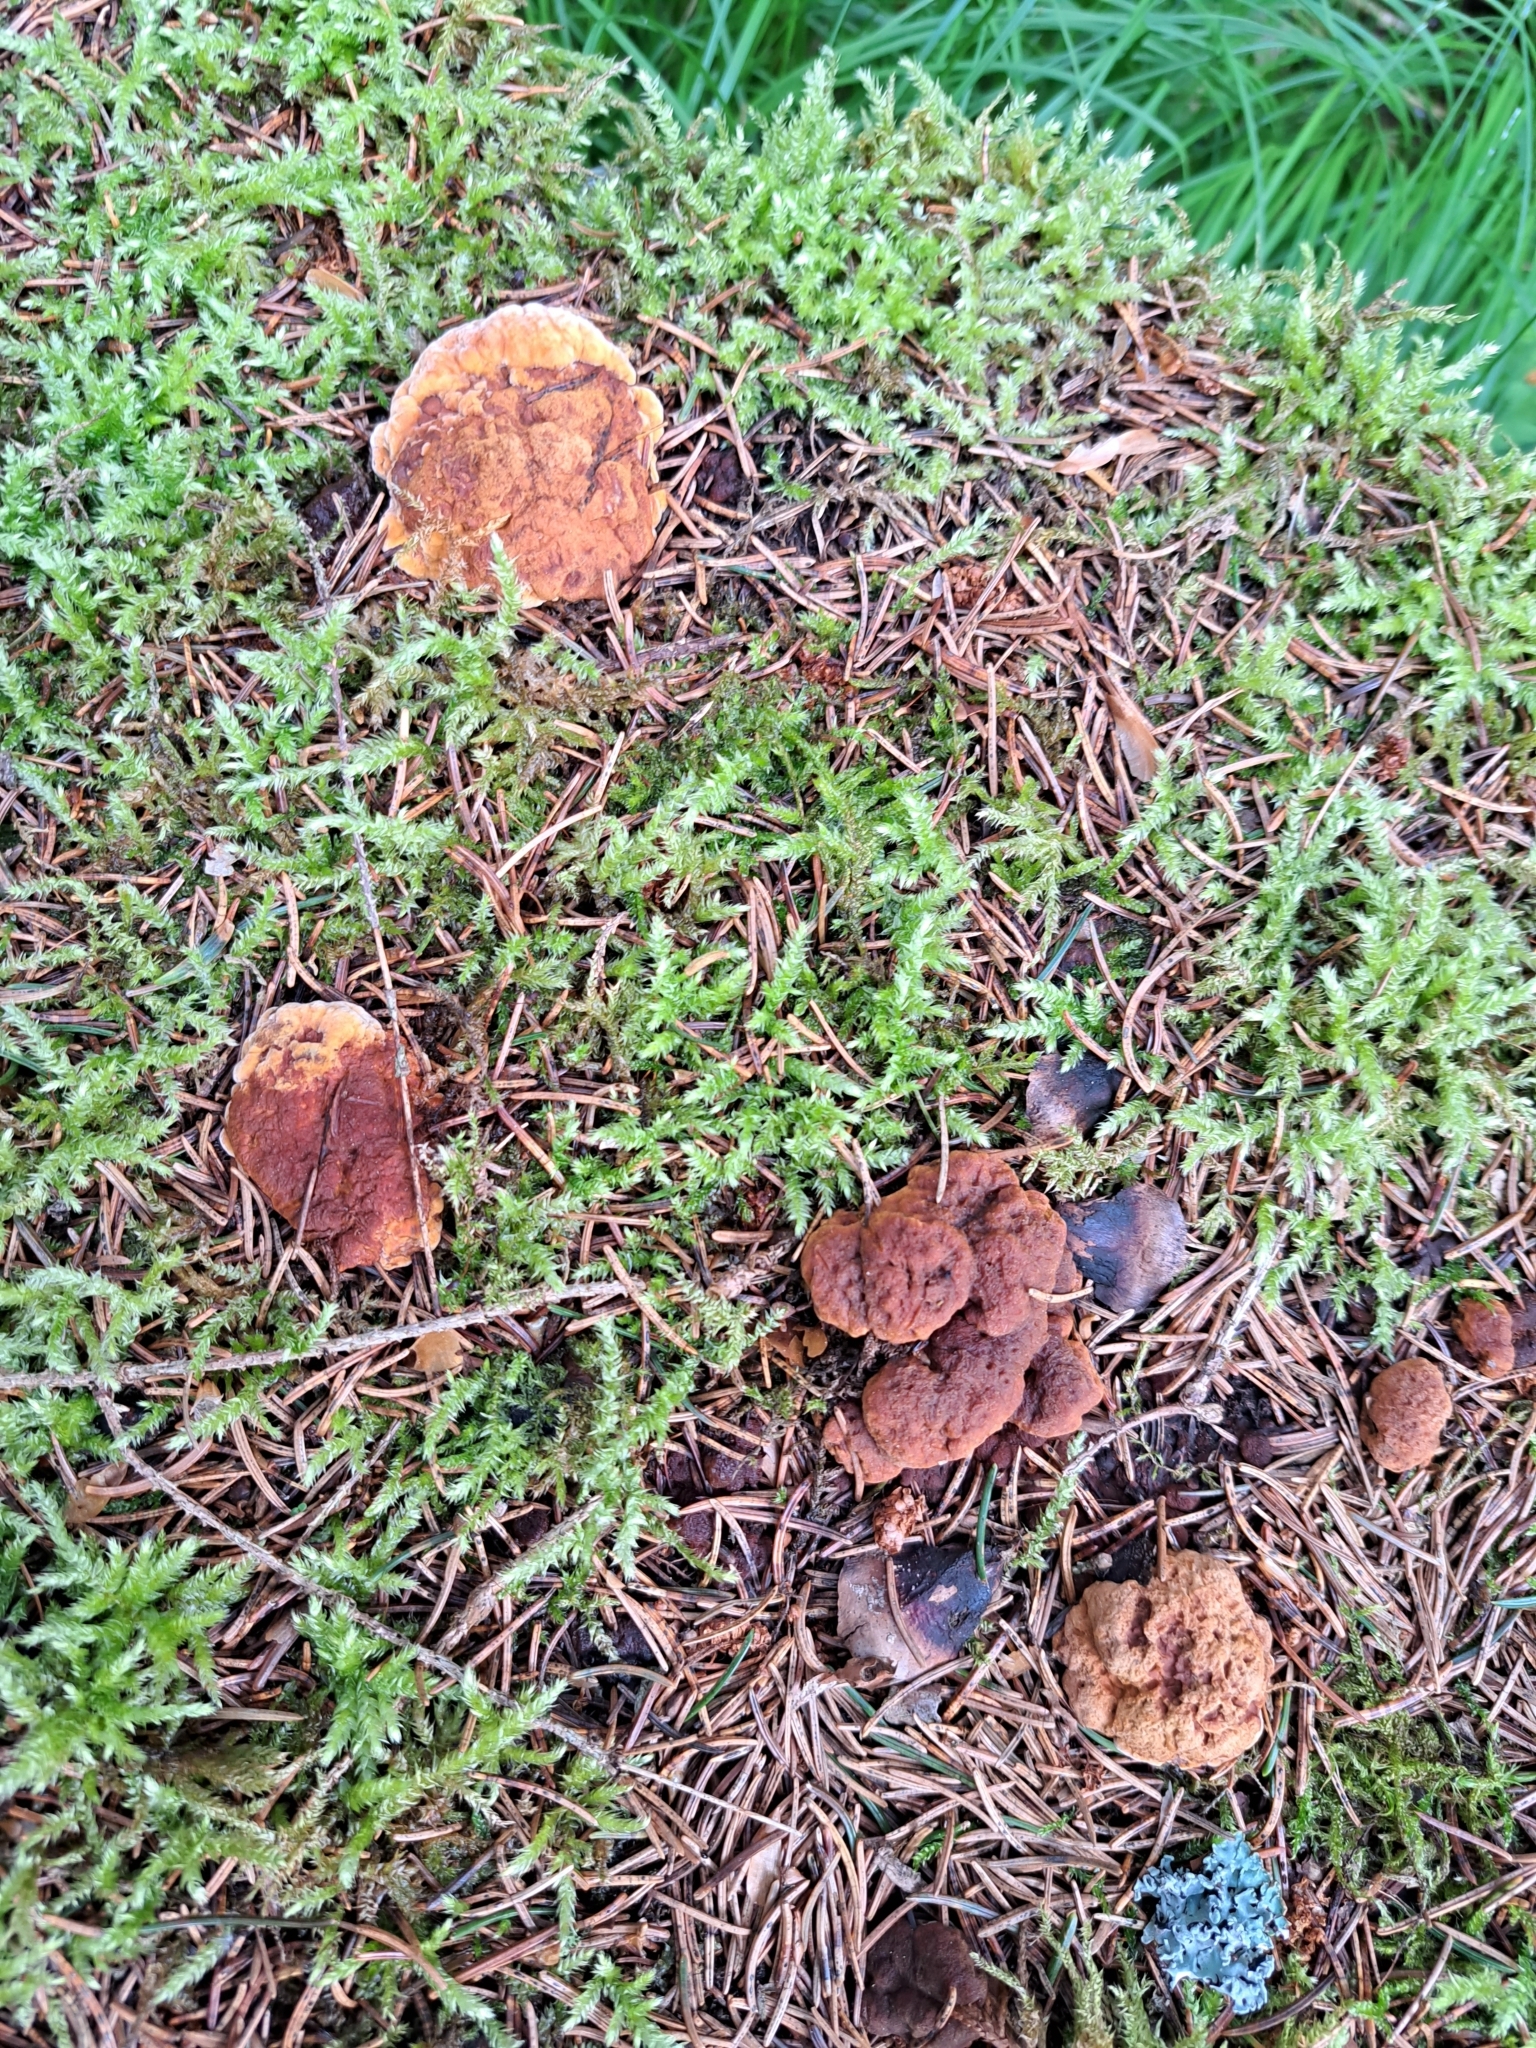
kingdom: Fungi
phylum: Basidiomycota
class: Agaricomycetes
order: Gloeophyllales
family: Gloeophyllaceae
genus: Gloeophyllum
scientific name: Gloeophyllum odoratum
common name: Anise mazegill
